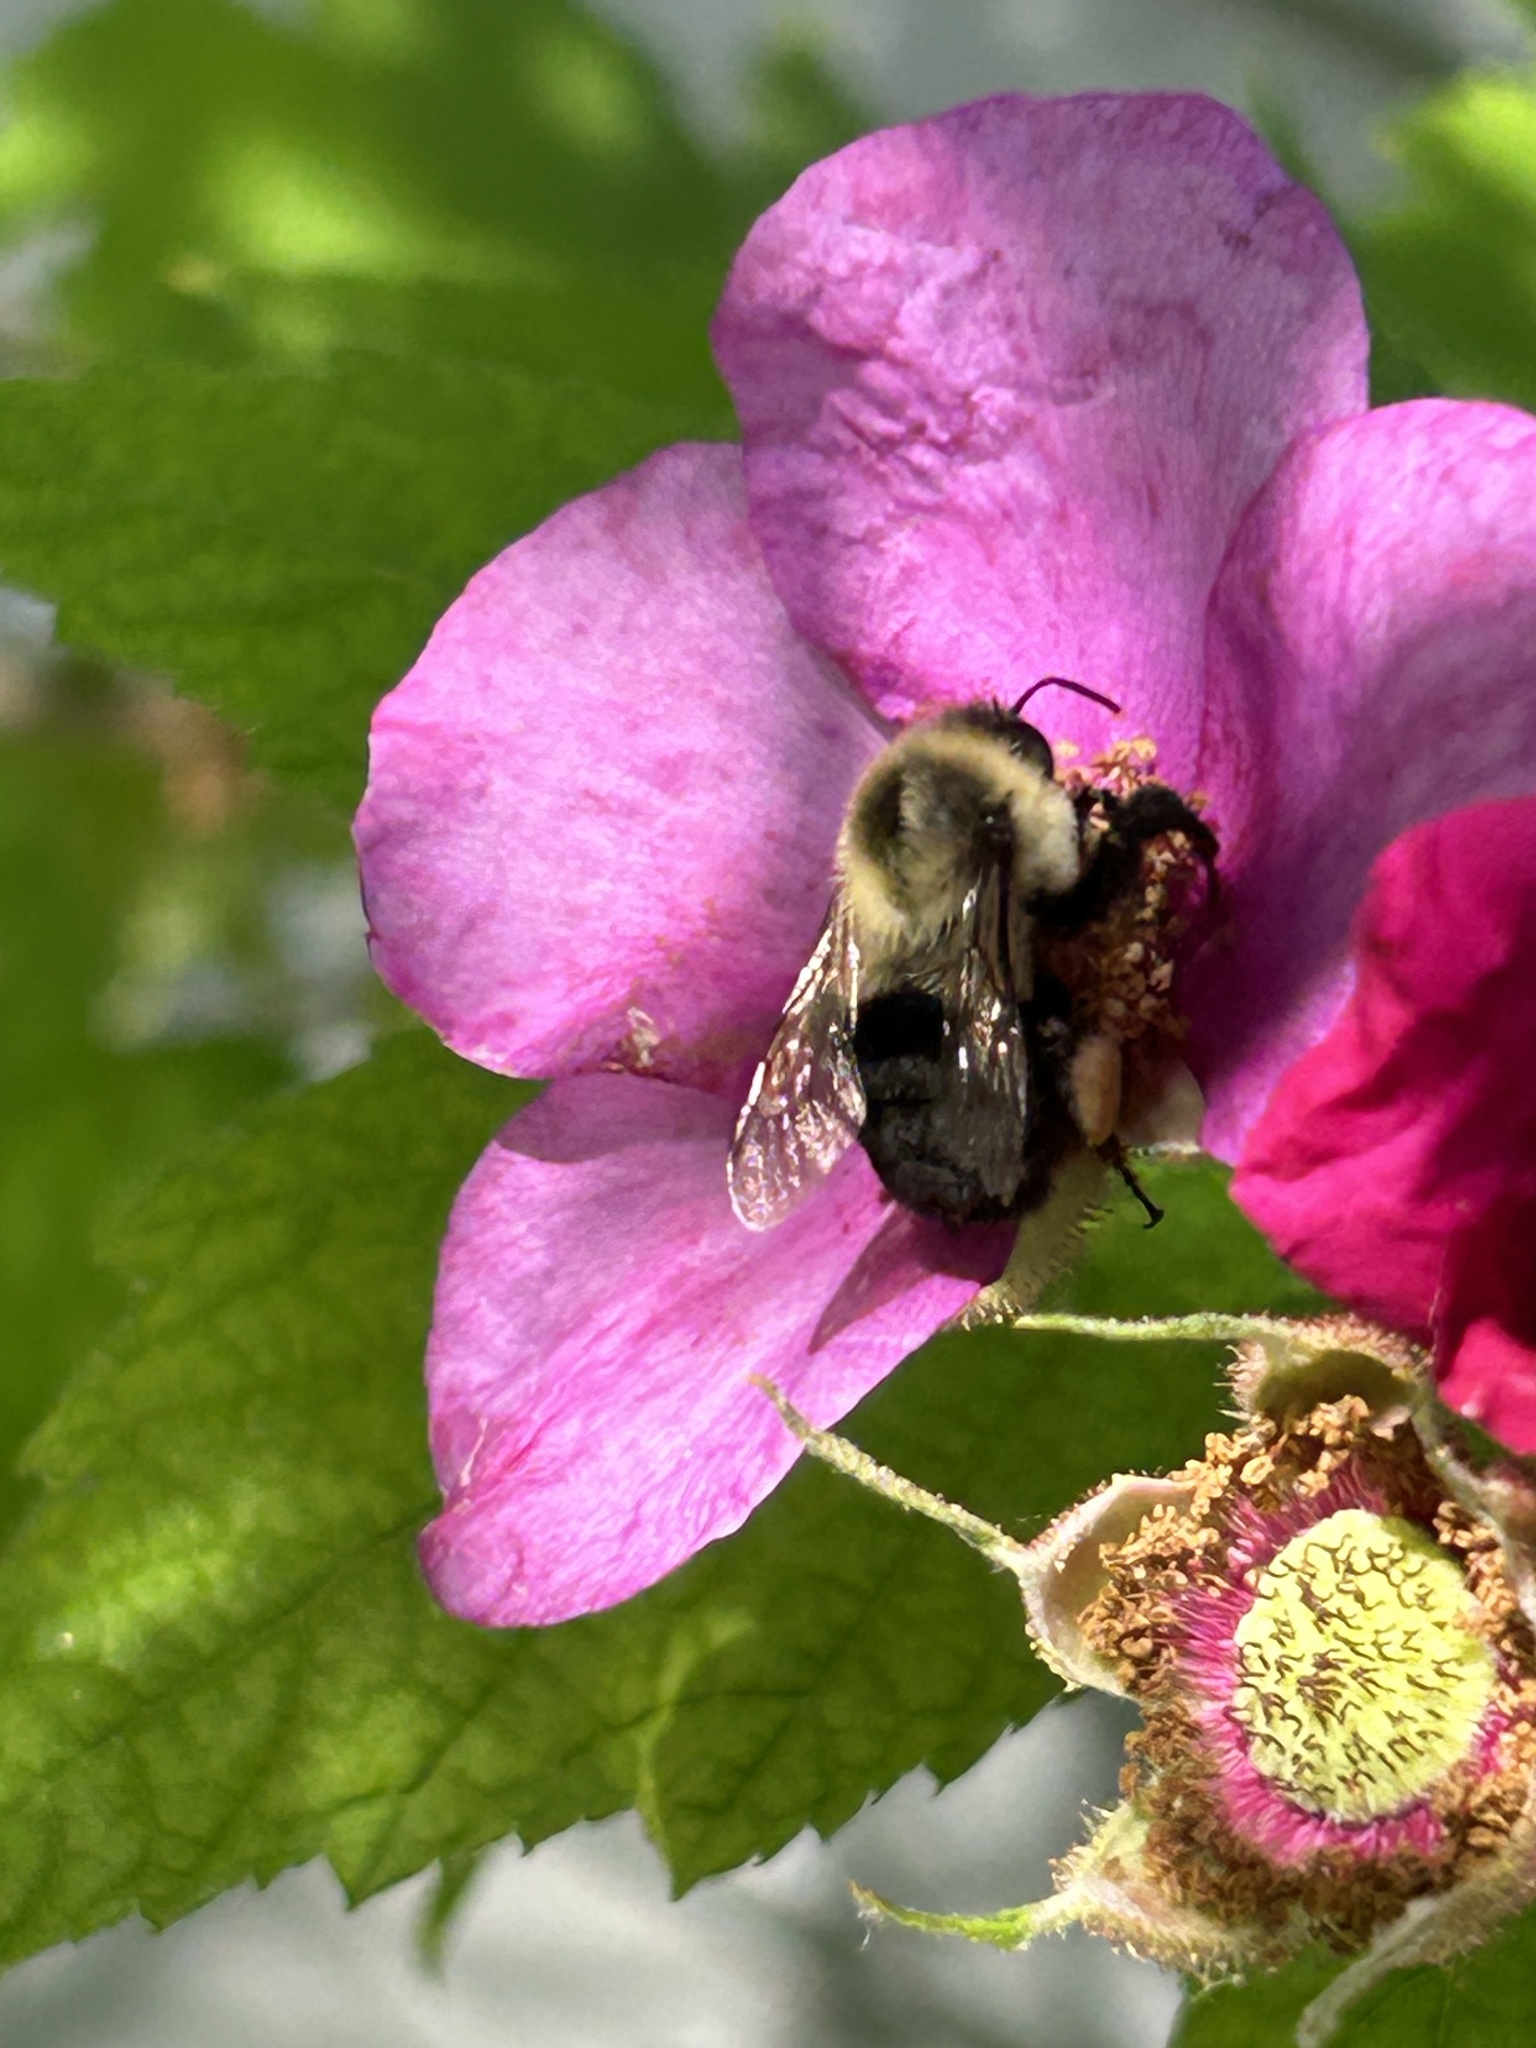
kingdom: Animalia
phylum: Arthropoda
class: Insecta
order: Hymenoptera
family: Apidae
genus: Bombus
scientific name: Bombus impatiens
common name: Common eastern bumble bee
